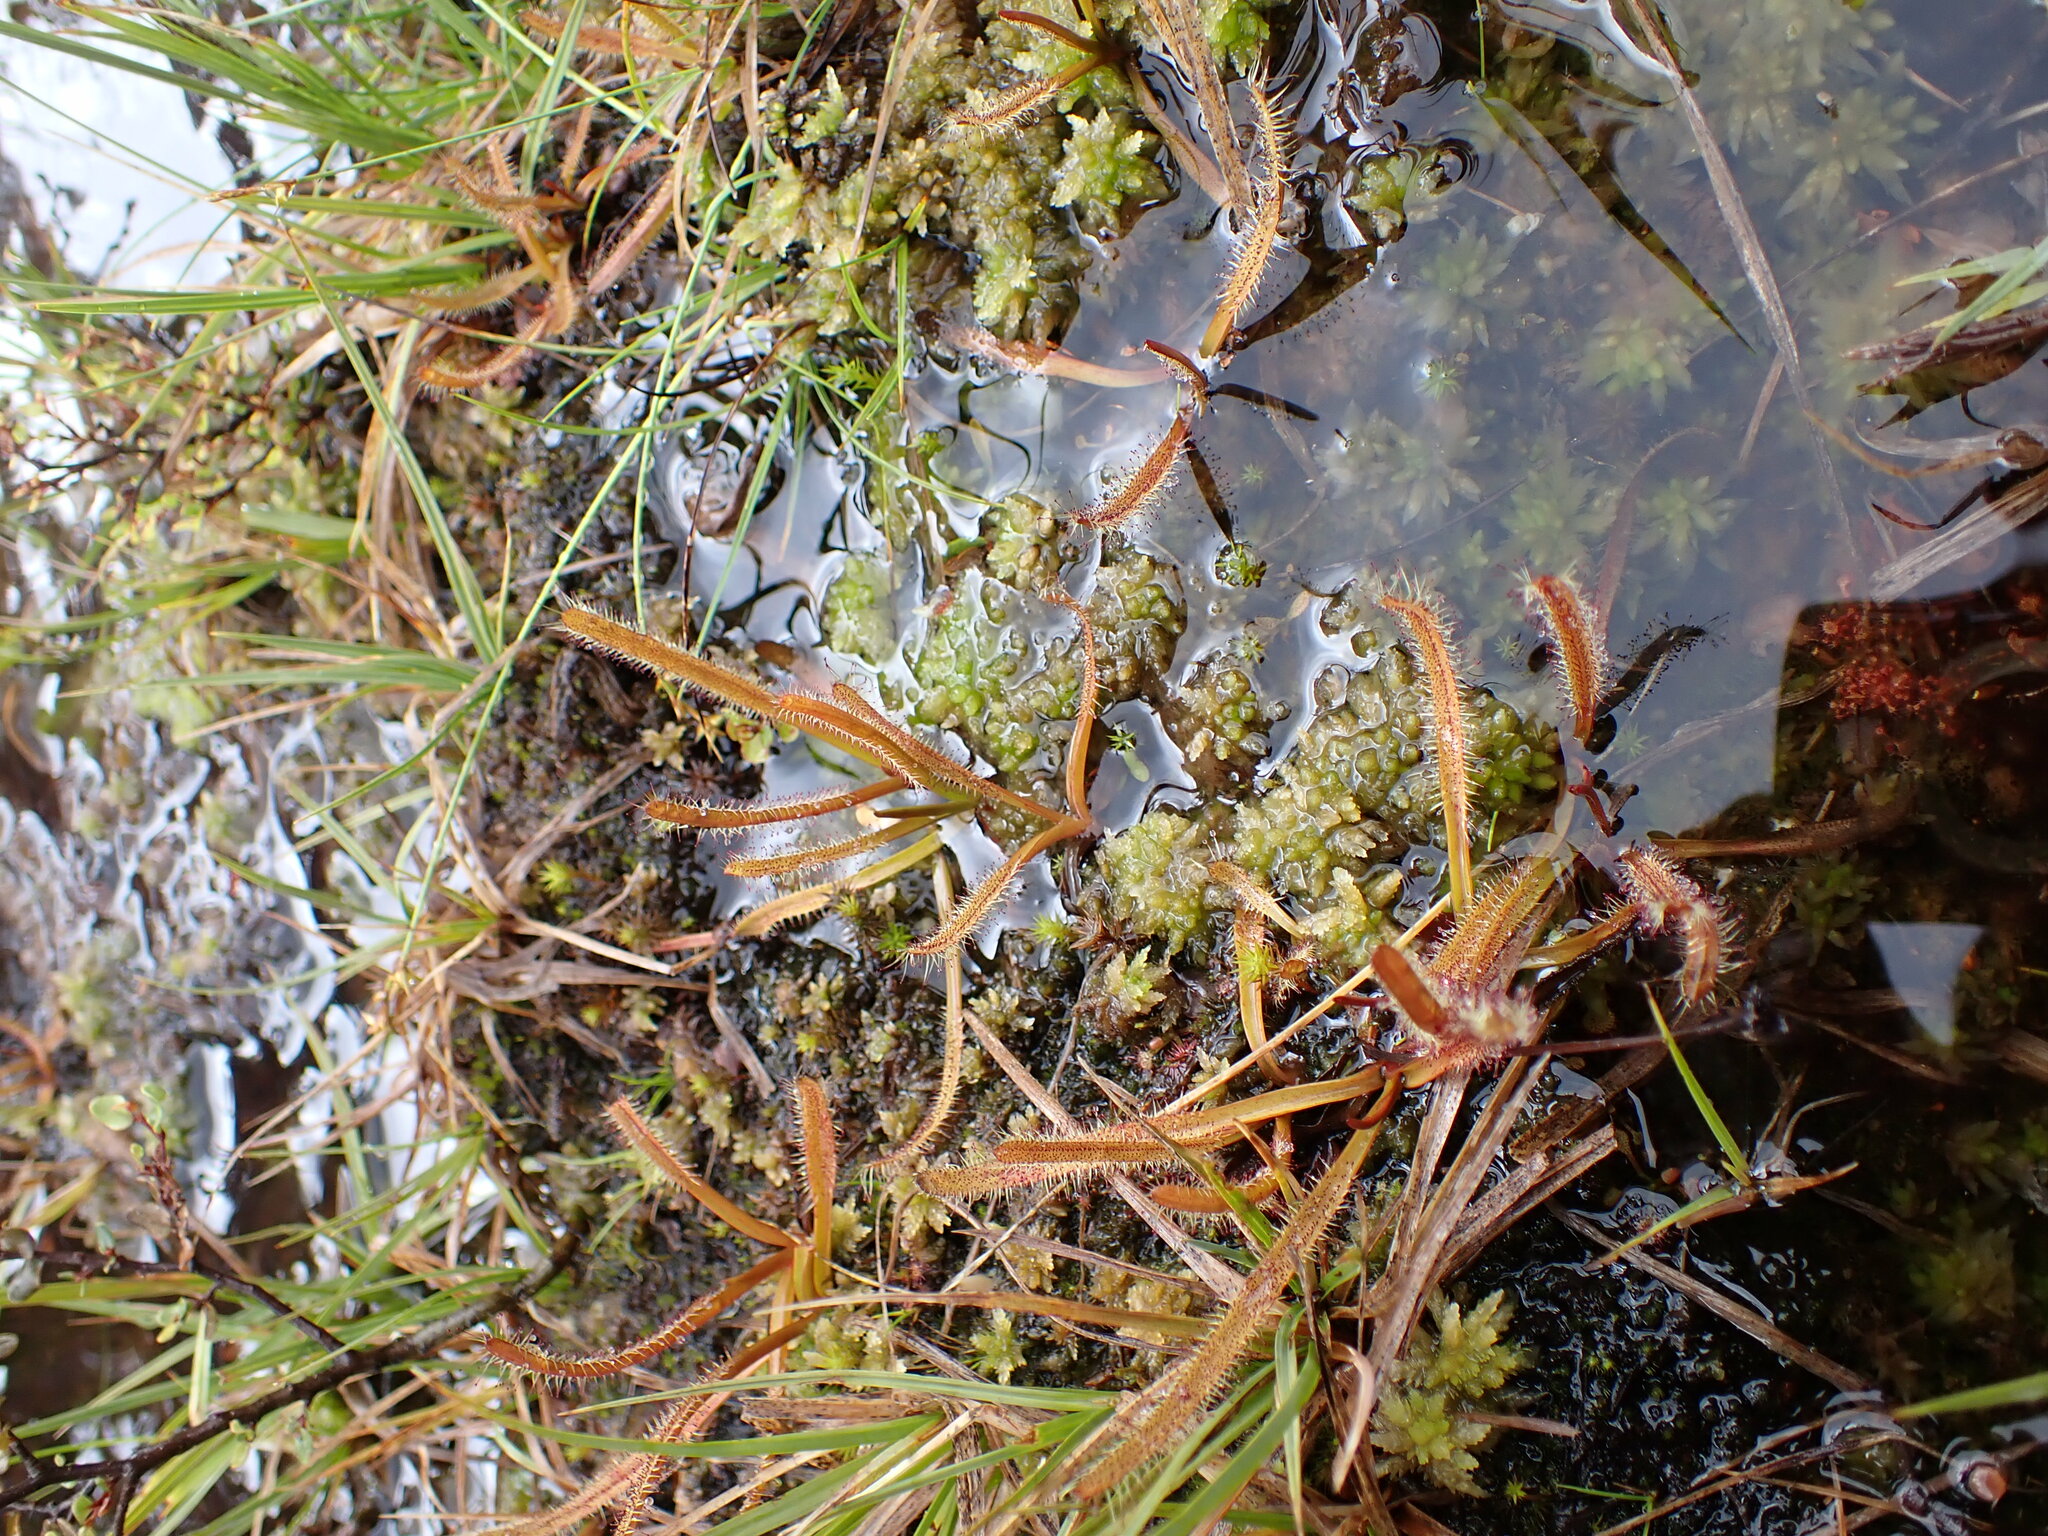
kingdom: Plantae
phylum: Tracheophyta
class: Magnoliopsida
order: Caryophyllales
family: Droseraceae
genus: Drosera
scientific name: Drosera arcturi
